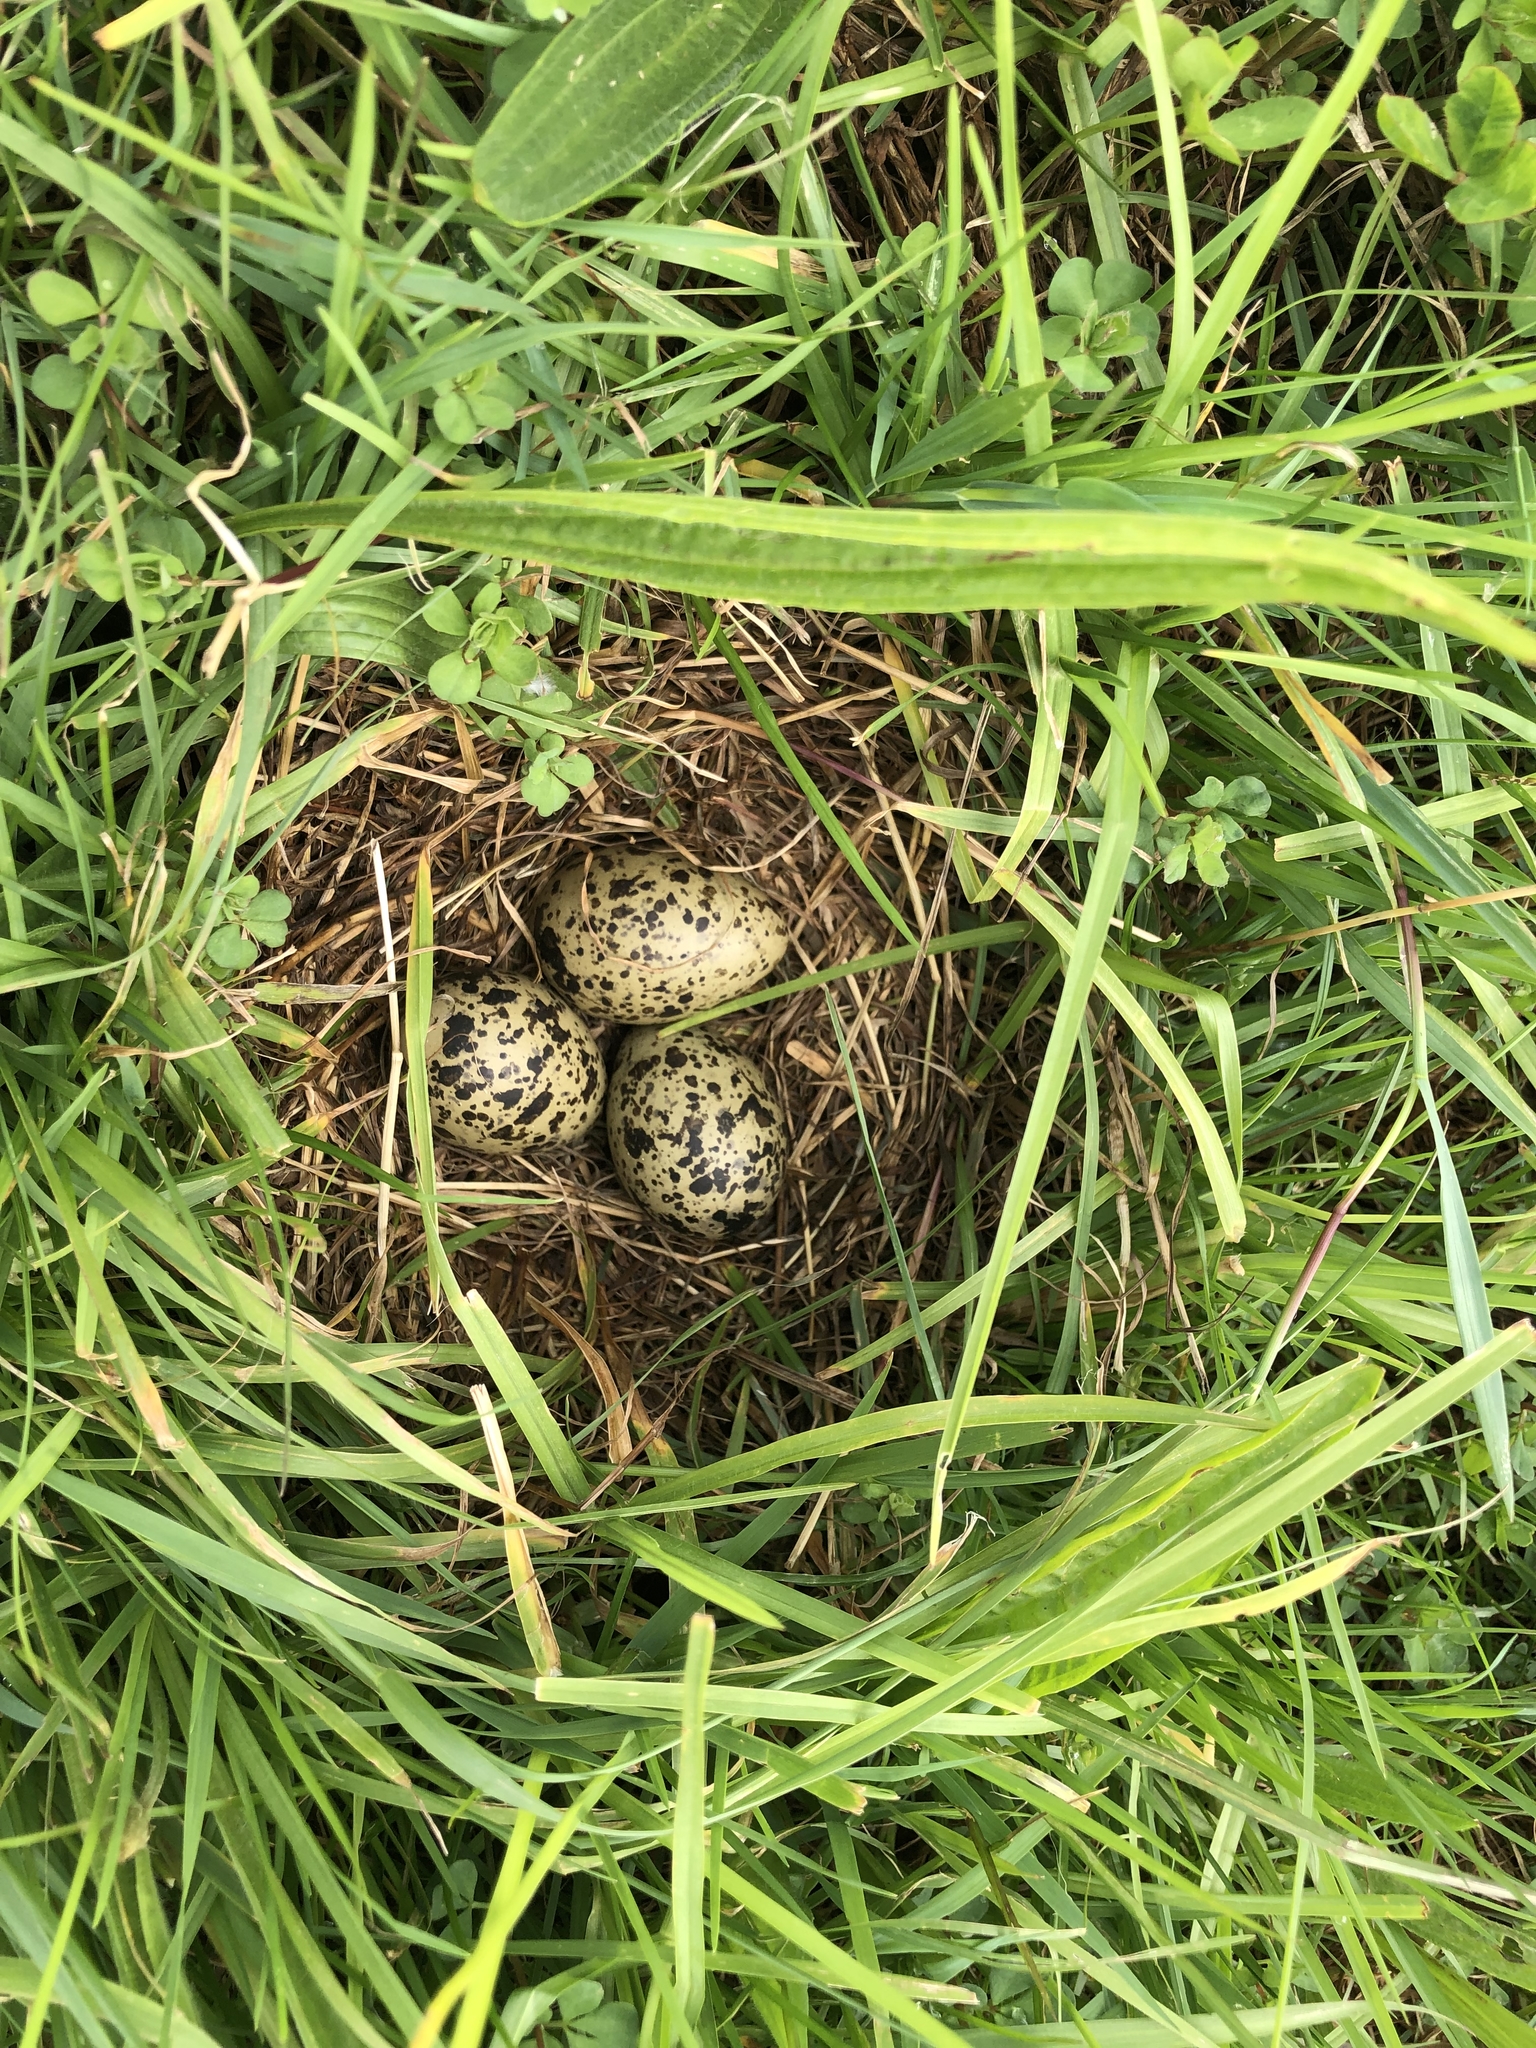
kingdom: Animalia
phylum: Chordata
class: Aves
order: Charadriiformes
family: Charadriidae
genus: Anarhynchus
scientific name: Anarhynchus
